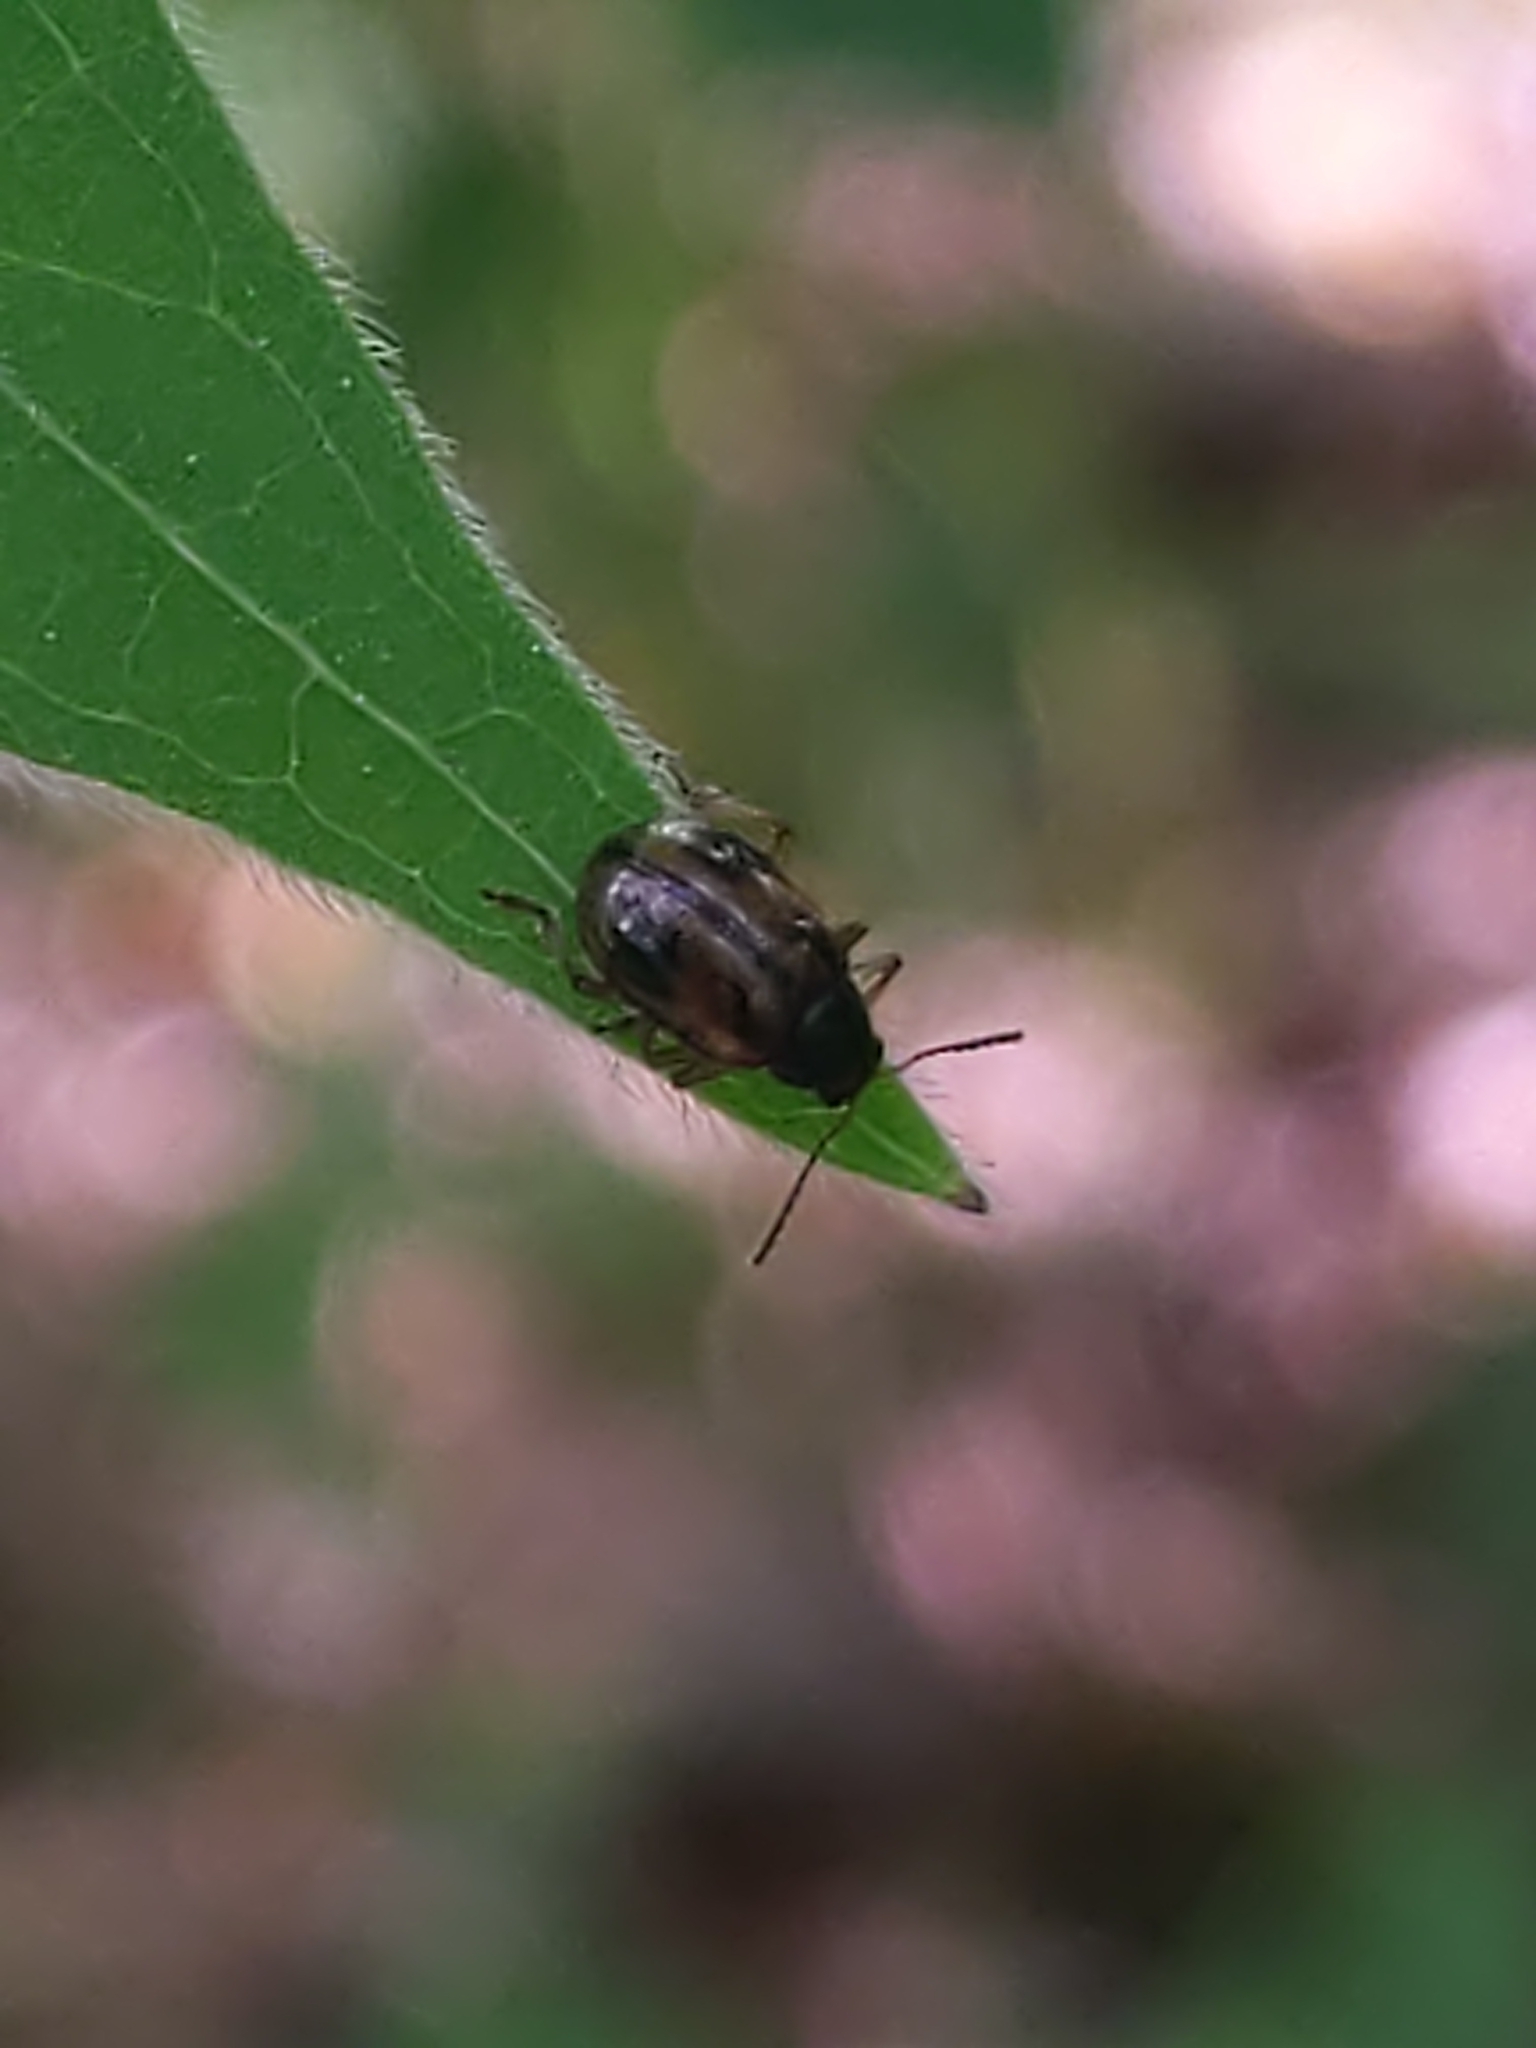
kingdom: Animalia
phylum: Arthropoda
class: Insecta
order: Coleoptera
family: Chrysomelidae
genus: Paria
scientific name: Paria
